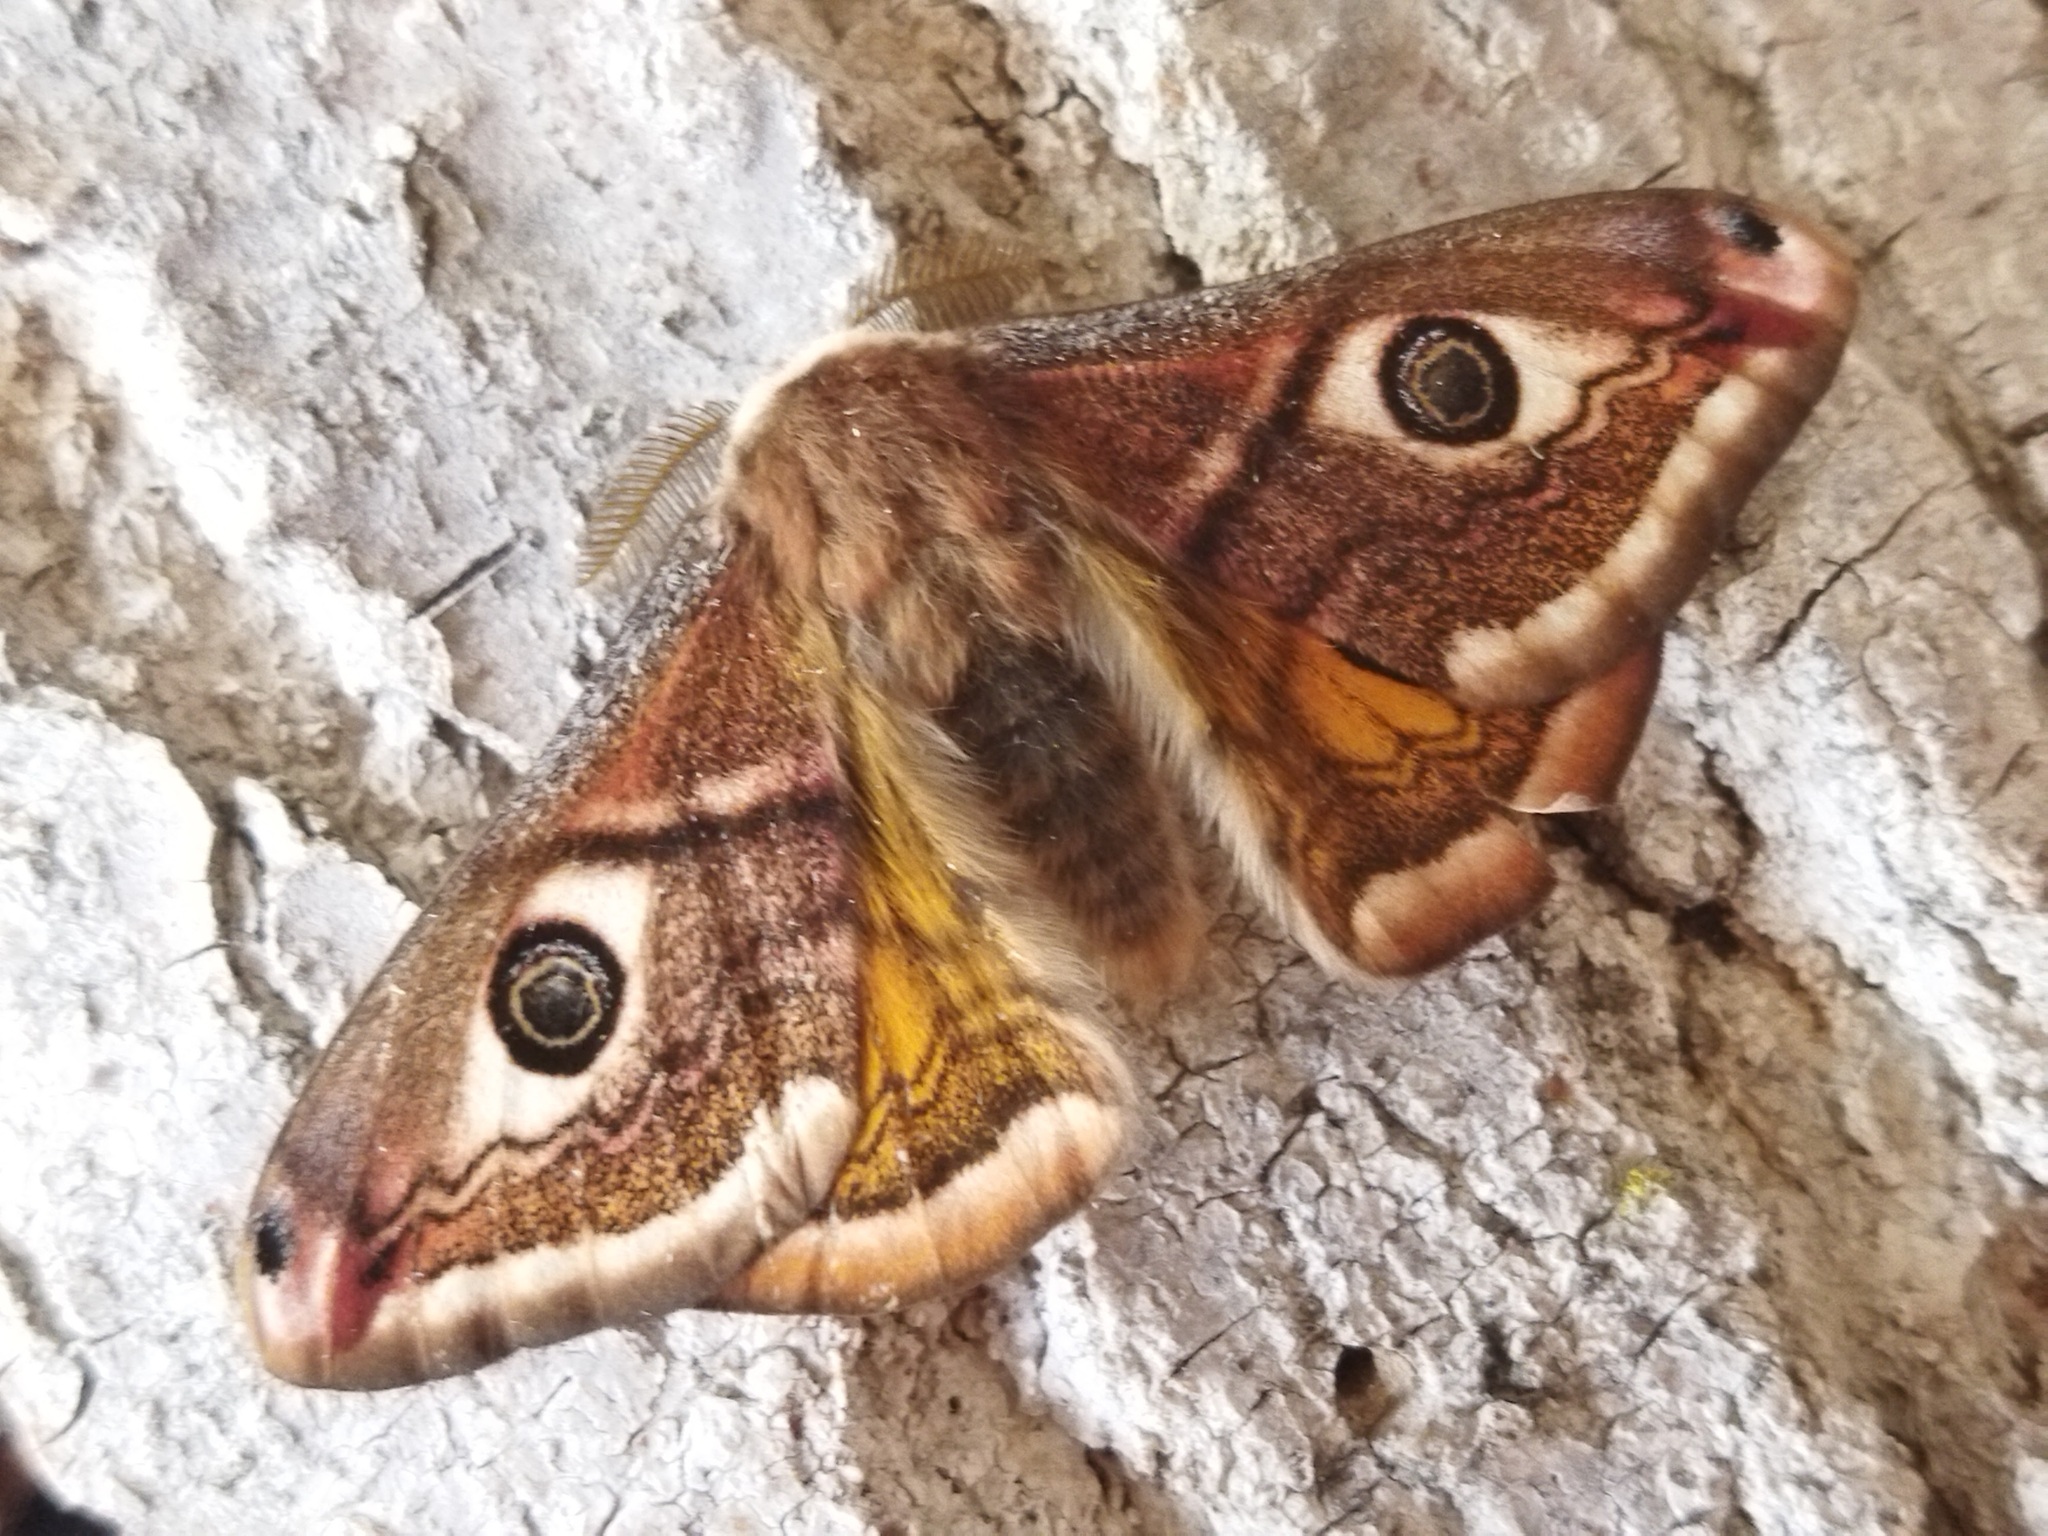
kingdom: Animalia
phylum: Arthropoda
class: Insecta
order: Lepidoptera
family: Saturniidae
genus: Saturnia
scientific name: Saturnia pavoniella
